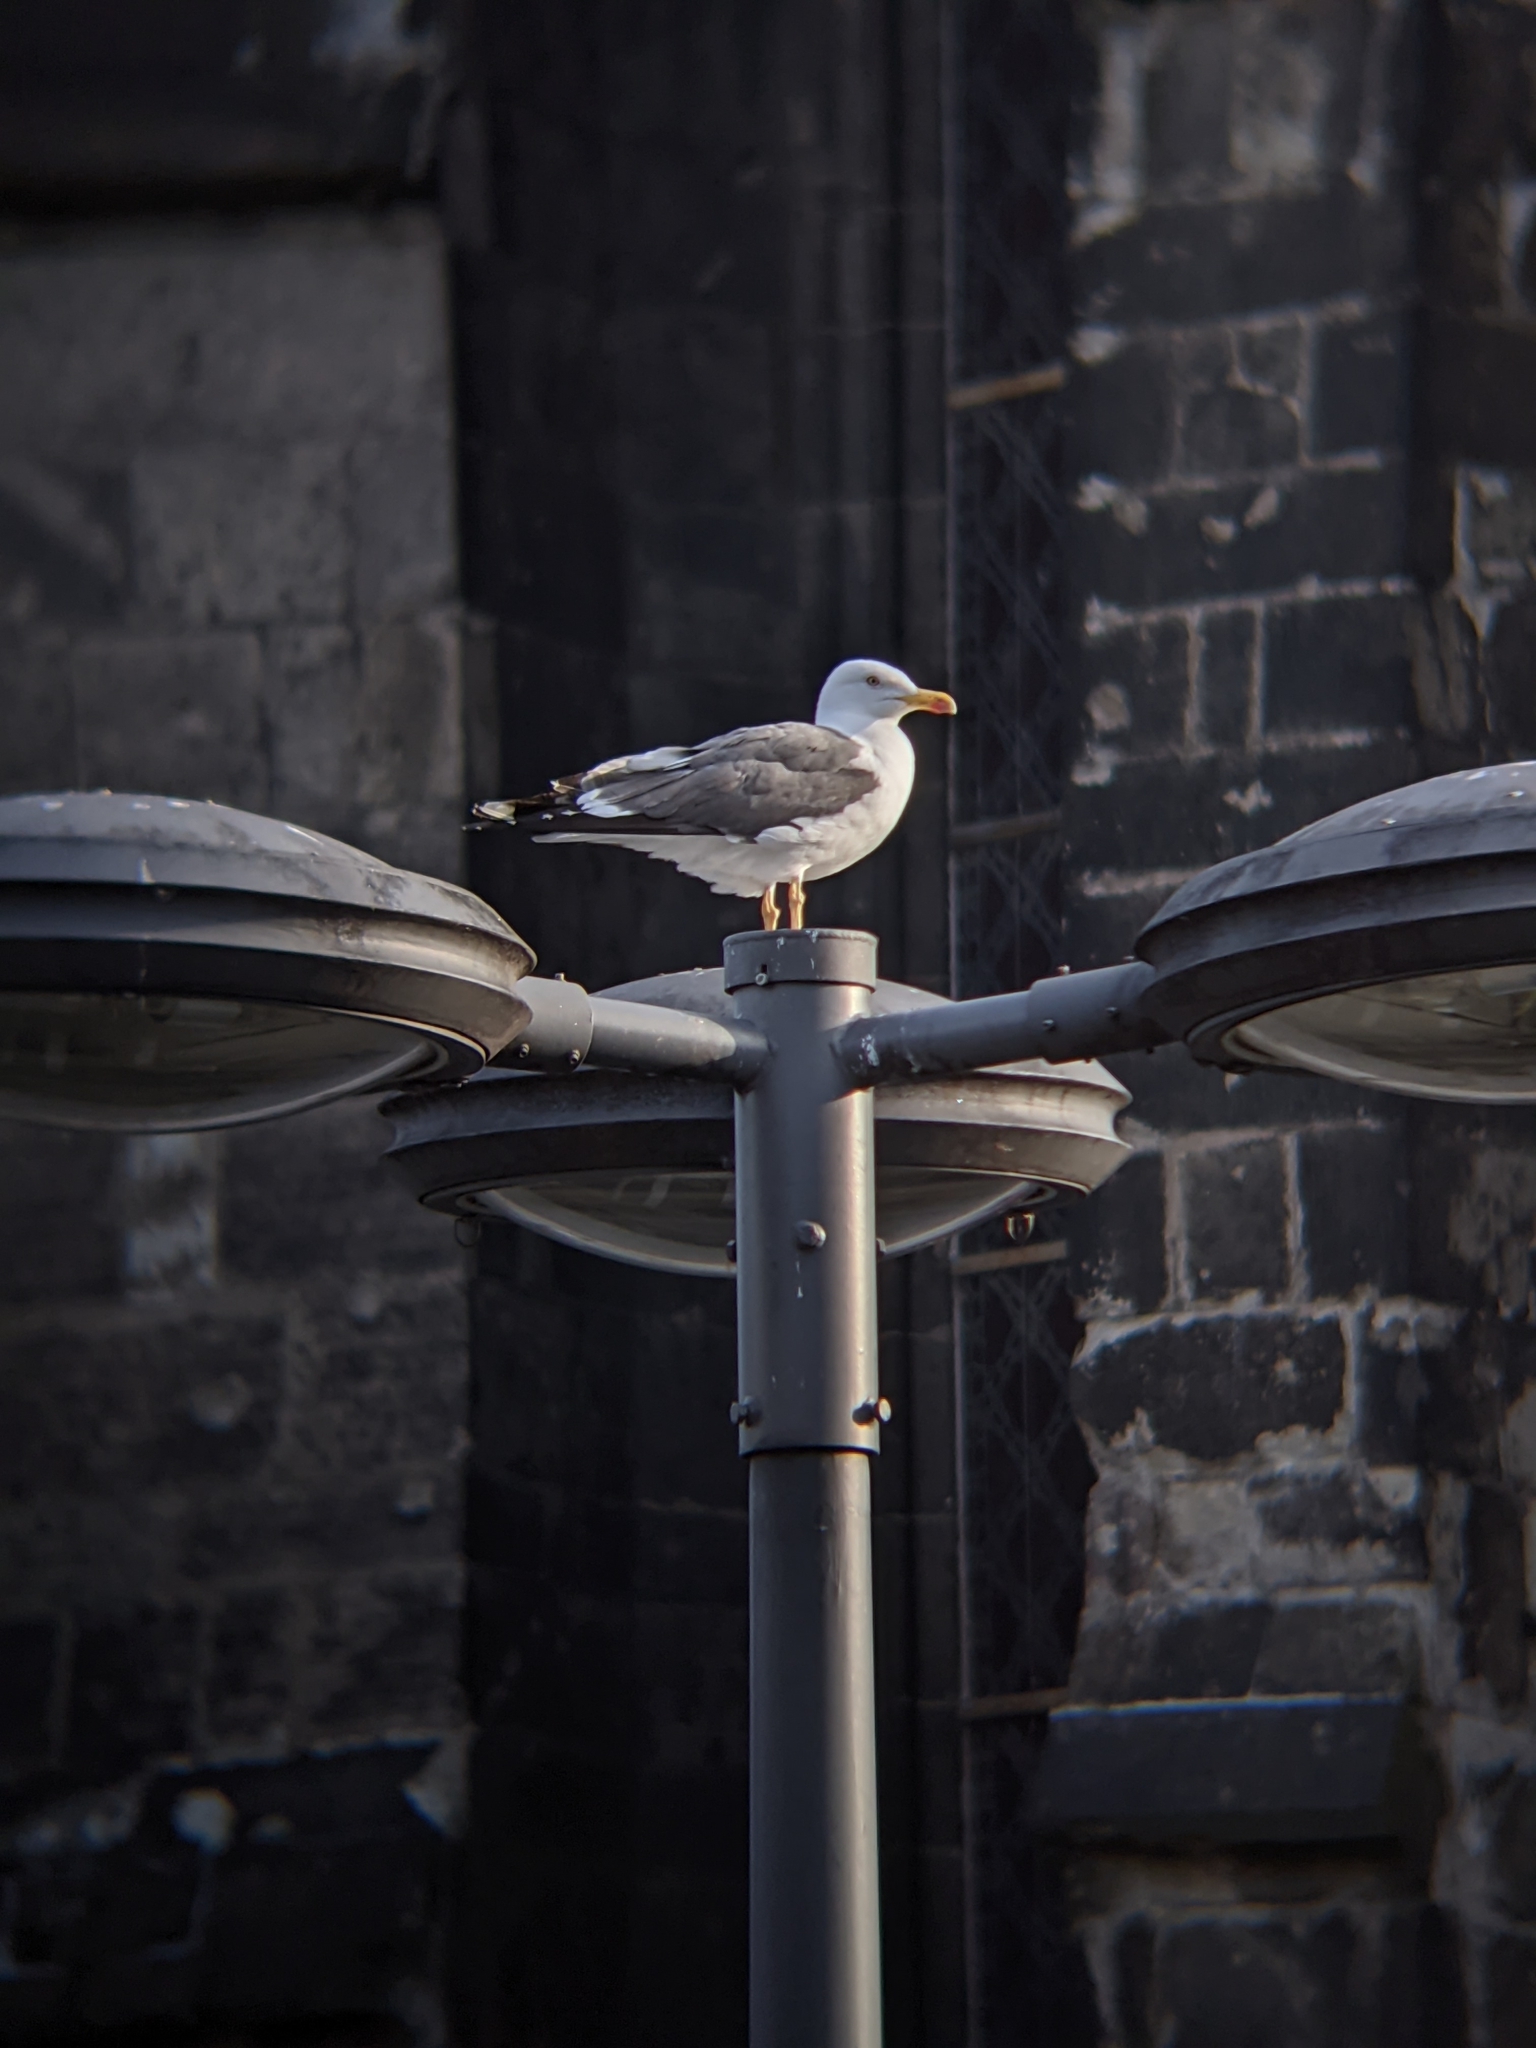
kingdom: Animalia
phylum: Chordata
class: Aves
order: Charadriiformes
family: Laridae
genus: Larus
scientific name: Larus fuscus
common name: Lesser black-backed gull
